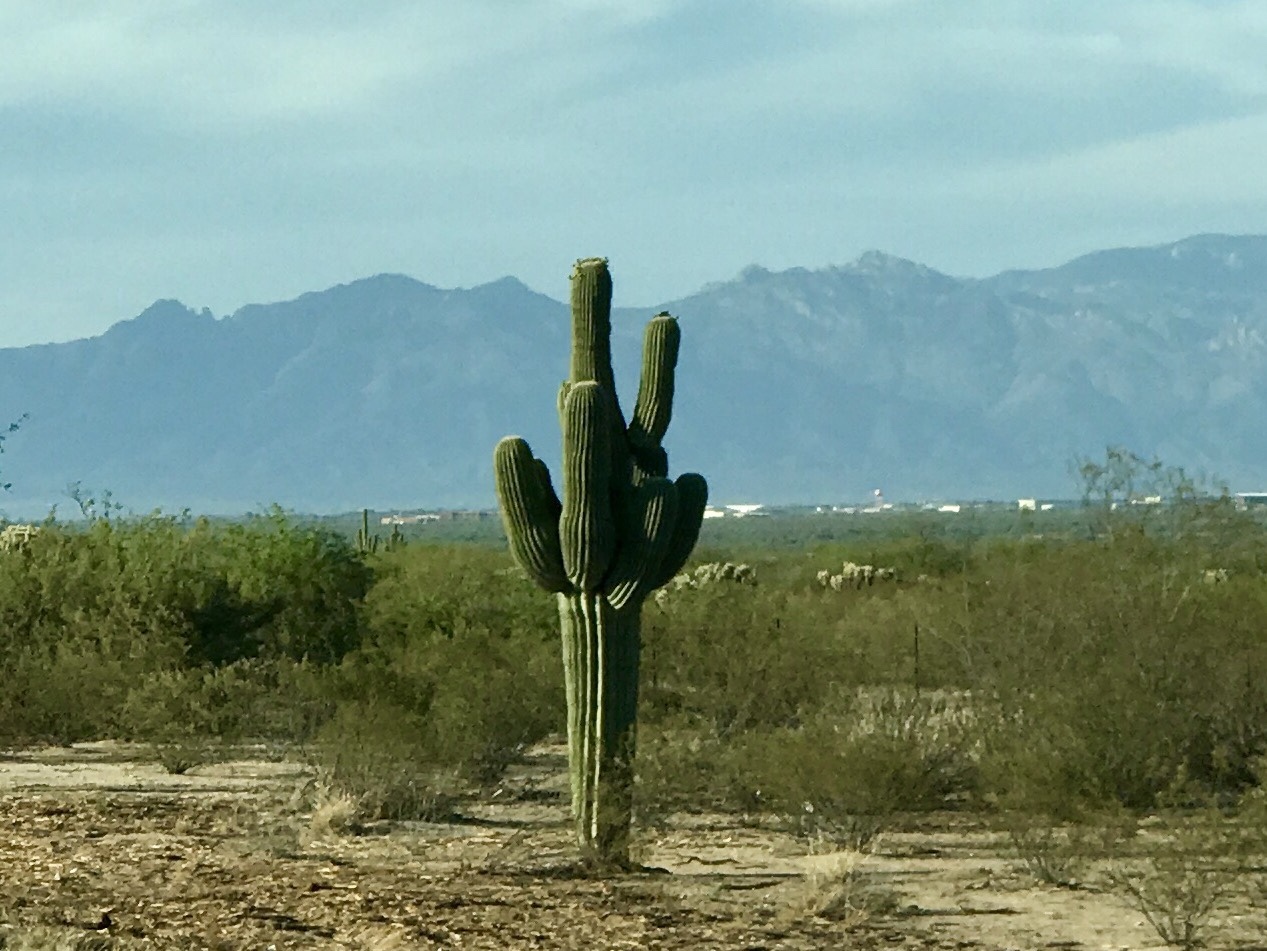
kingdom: Plantae
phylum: Tracheophyta
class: Magnoliopsida
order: Caryophyllales
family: Cactaceae
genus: Carnegiea
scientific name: Carnegiea gigantea
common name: Saguaro
